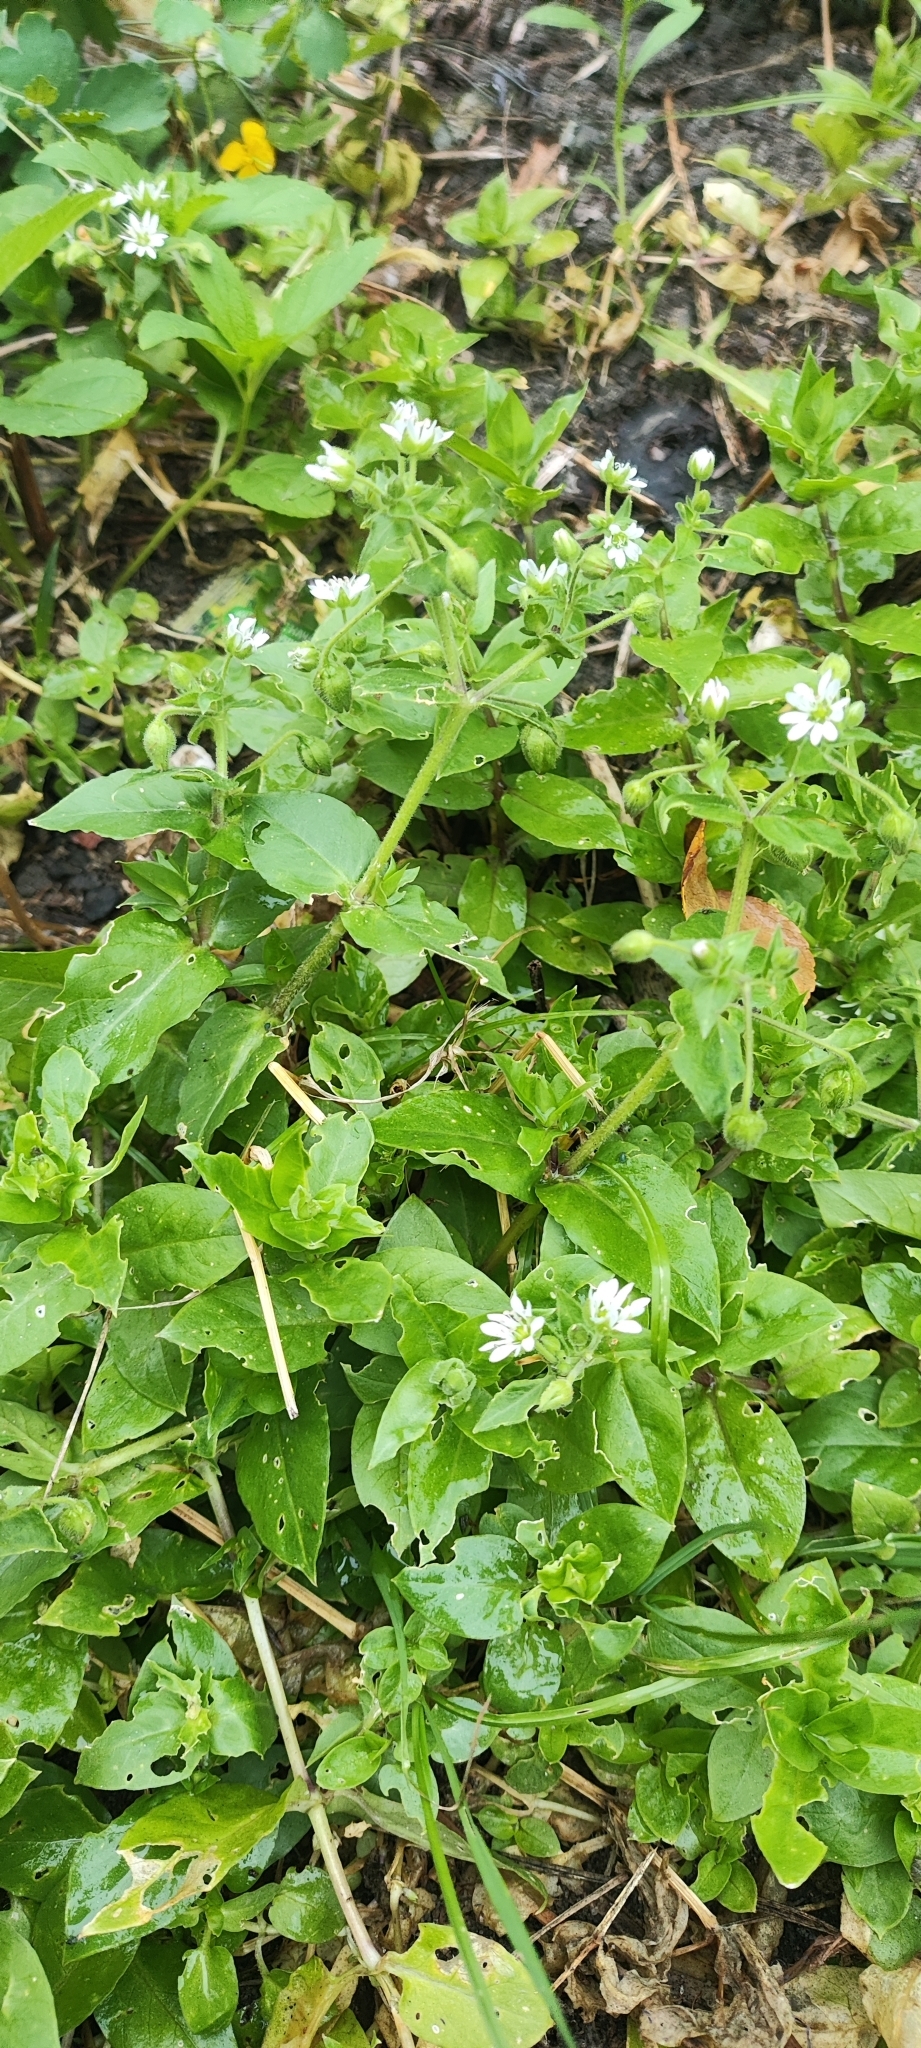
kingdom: Plantae
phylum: Tracheophyta
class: Magnoliopsida
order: Caryophyllales
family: Caryophyllaceae
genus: Stellaria
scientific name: Stellaria aquatica
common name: Water chickweed
